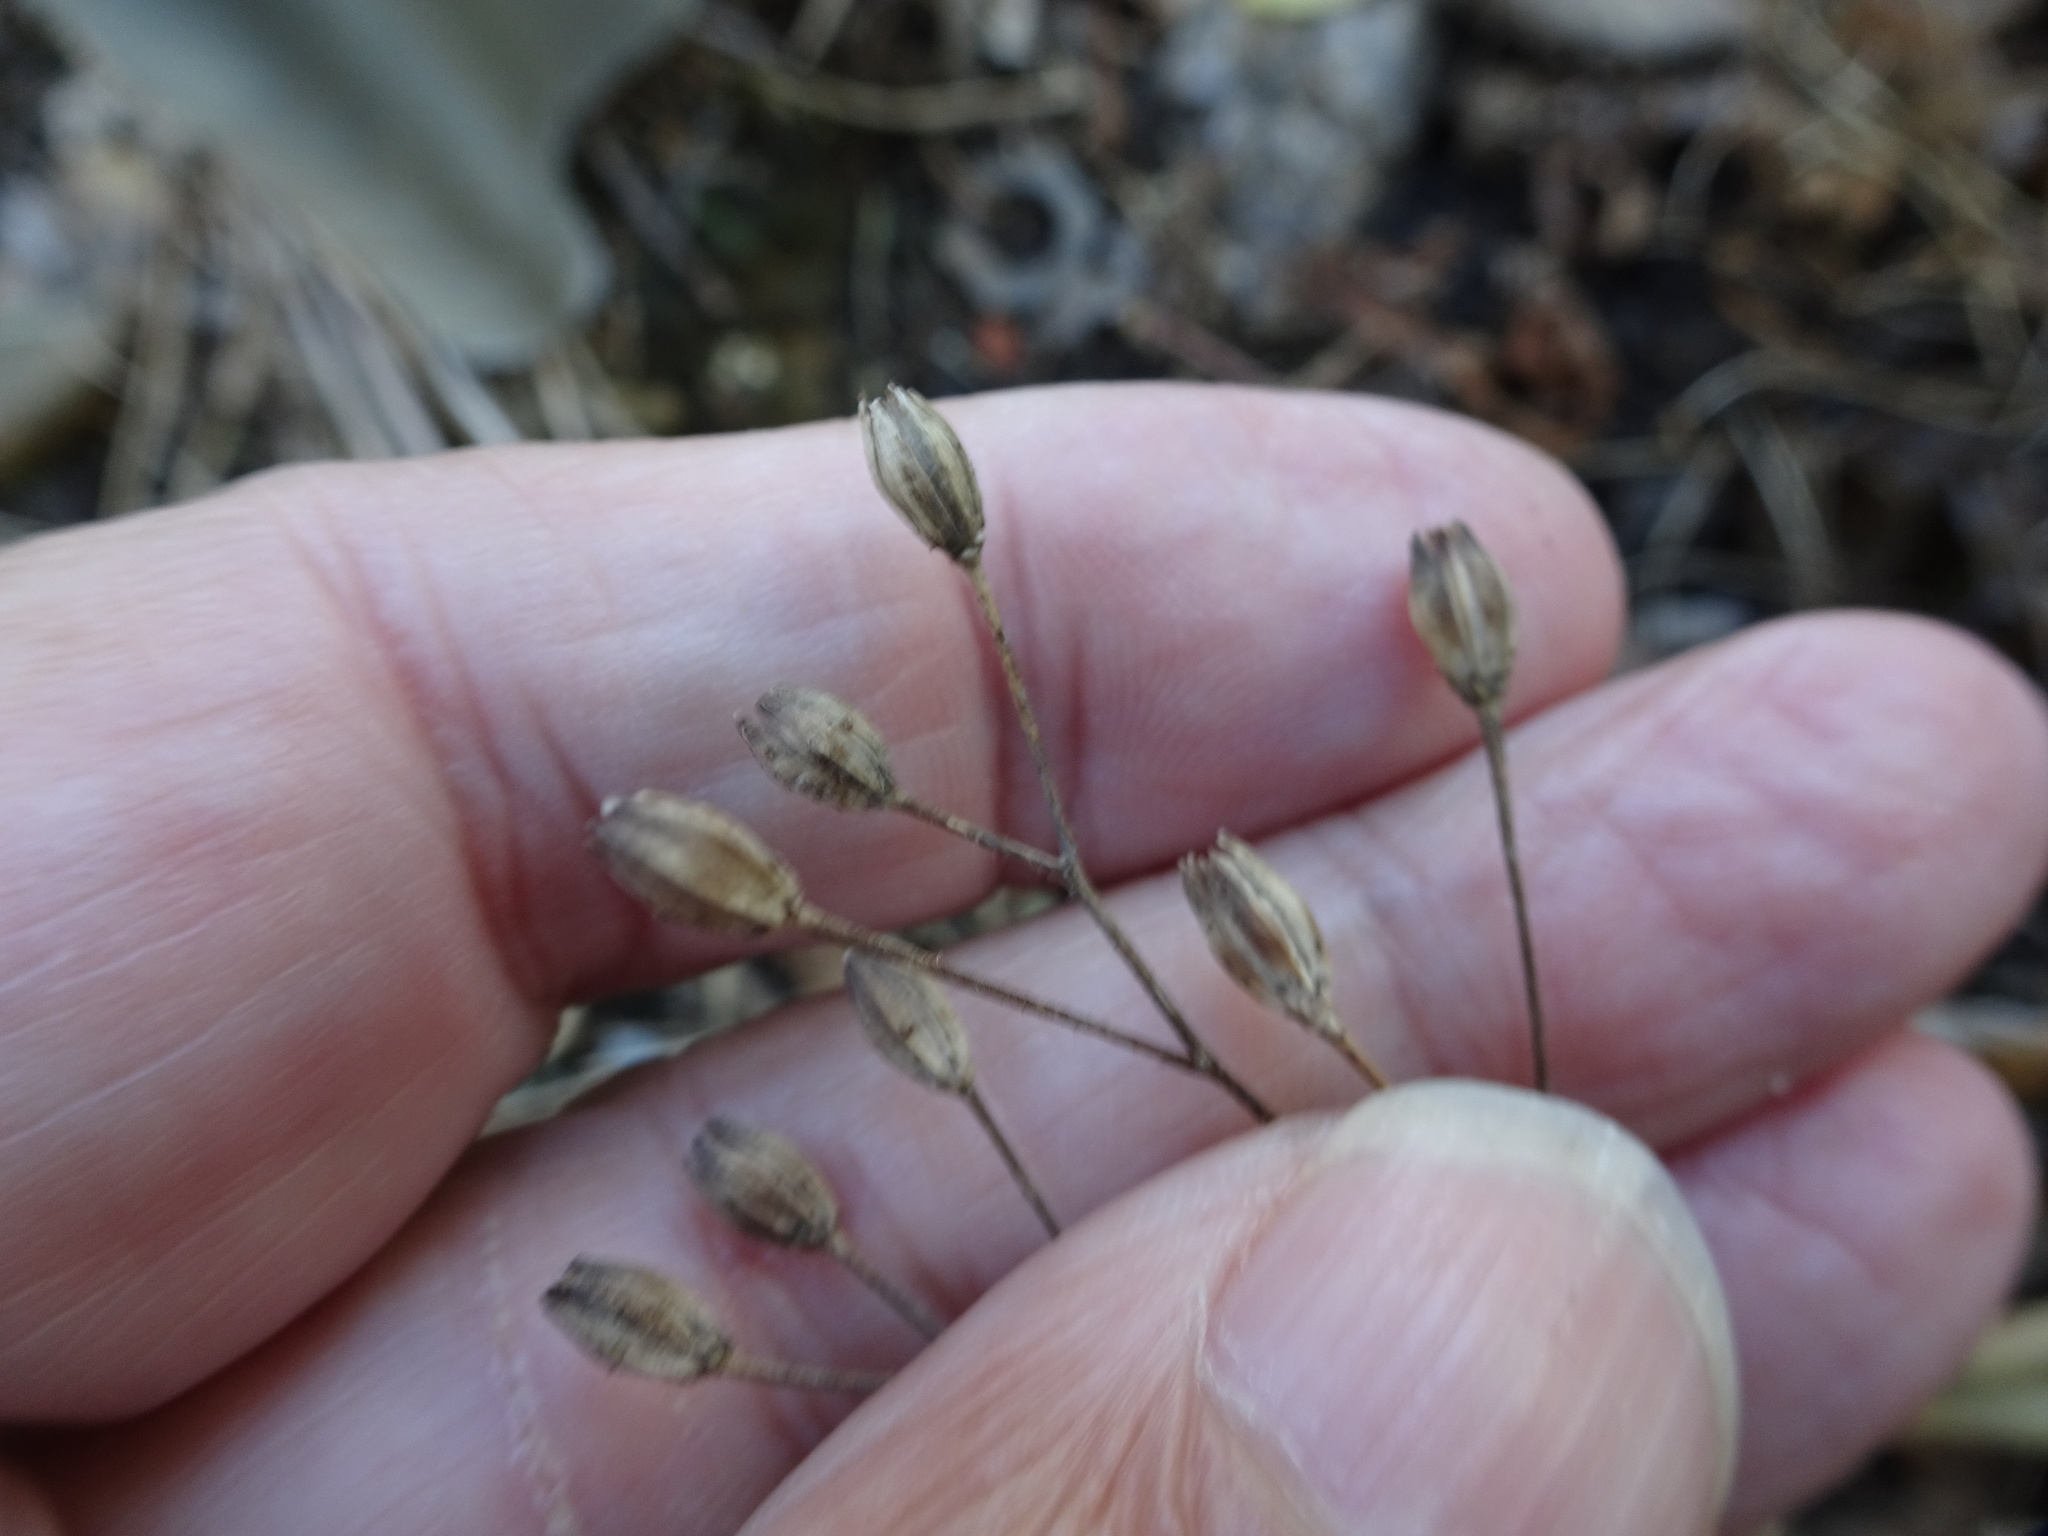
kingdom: Plantae
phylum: Tracheophyta
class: Magnoliopsida
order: Asterales
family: Asteraceae
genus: Lapsana
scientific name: Lapsana communis
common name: Nipplewort
